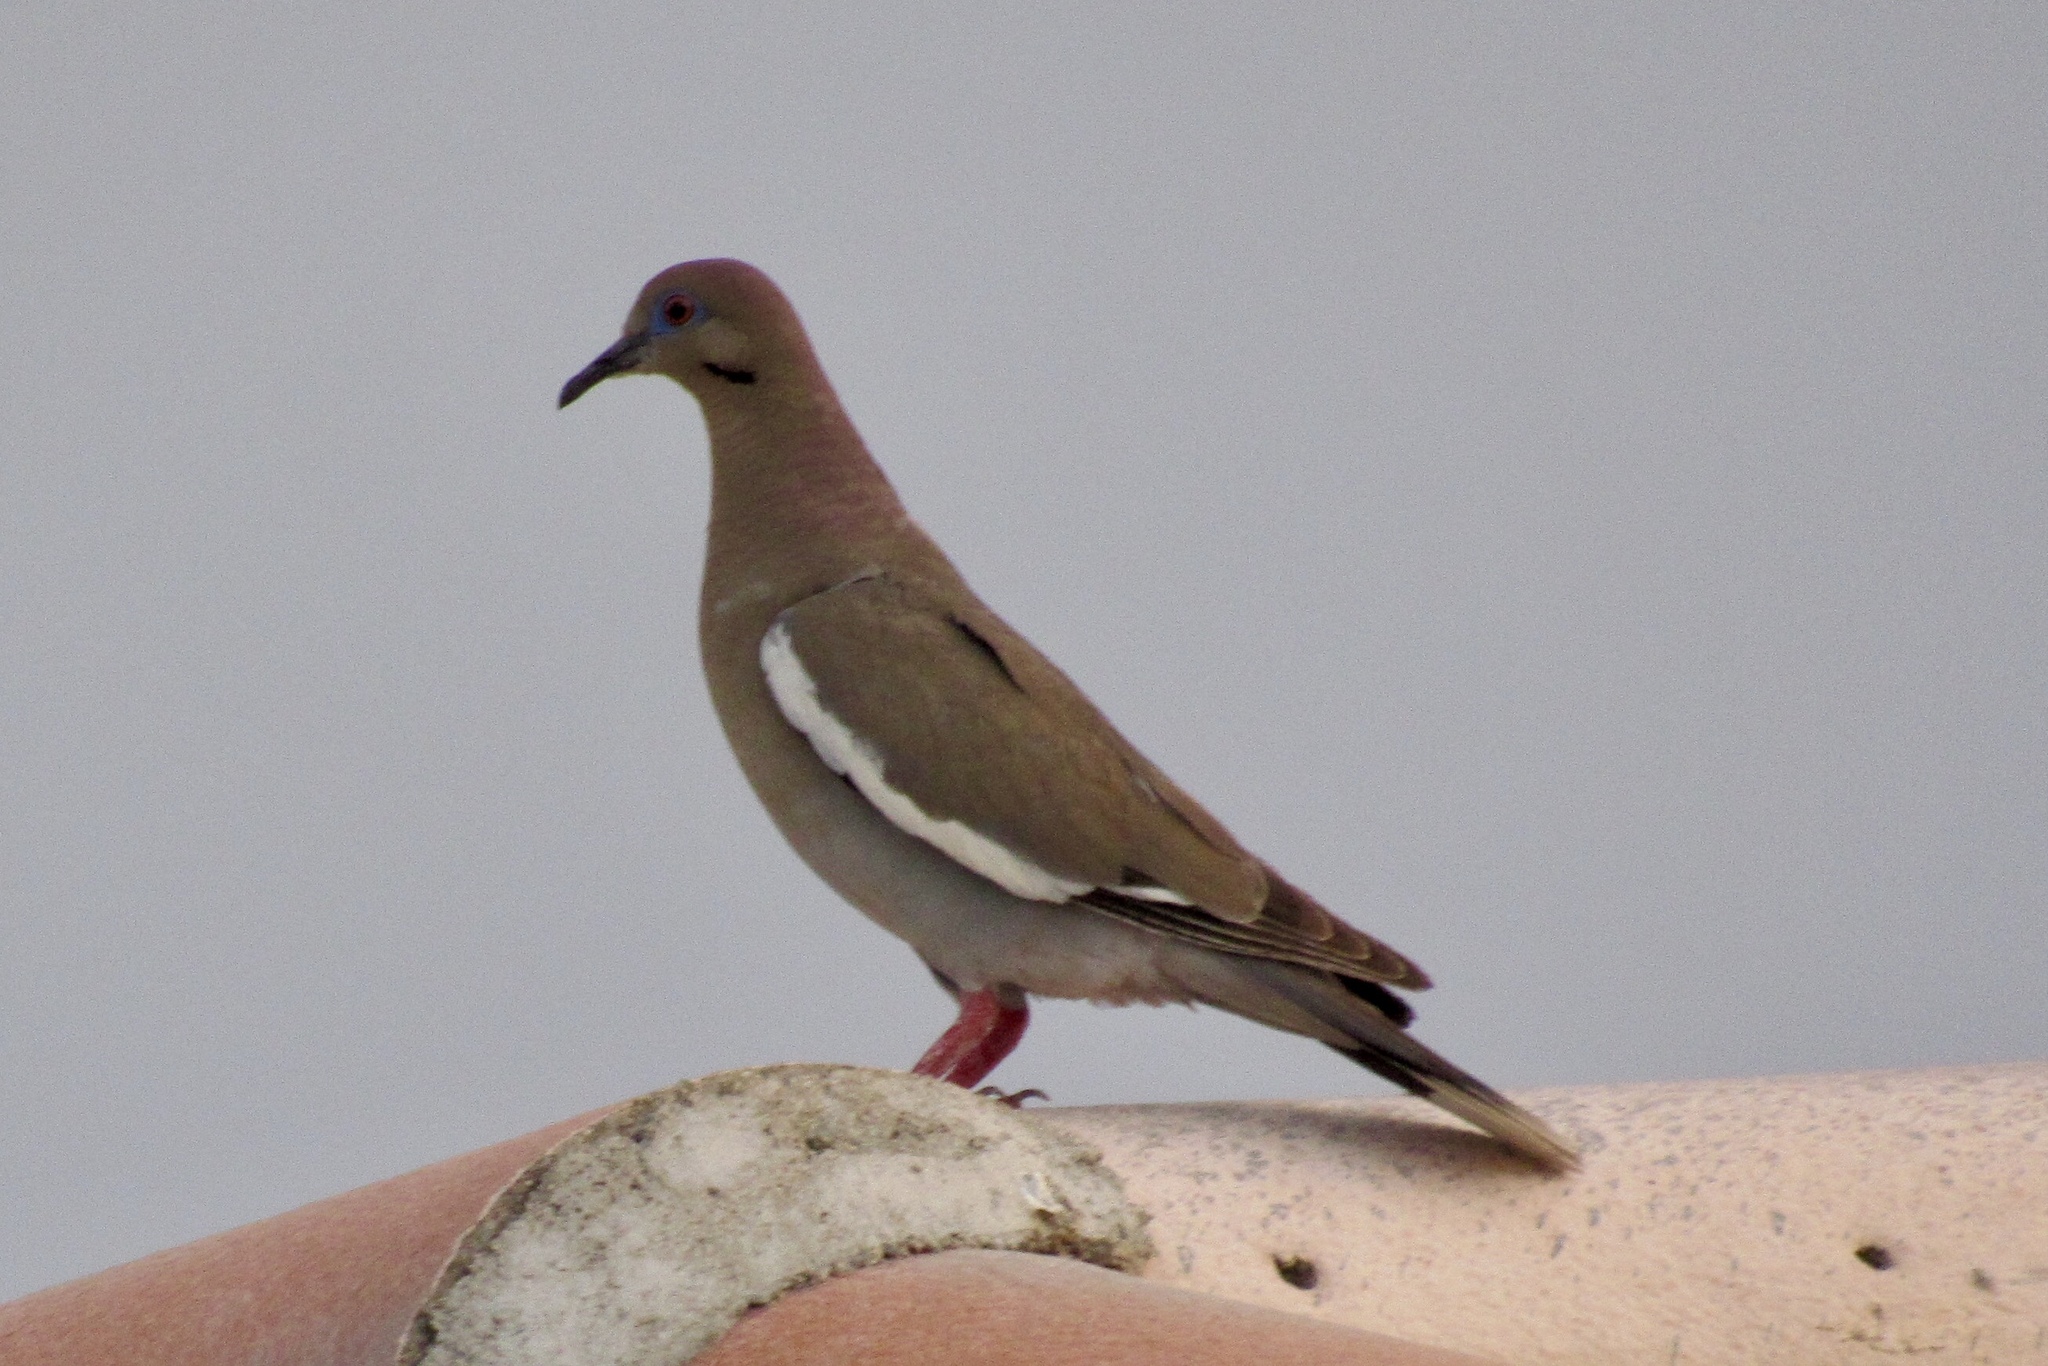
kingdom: Animalia
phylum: Chordata
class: Aves
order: Columbiformes
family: Columbidae
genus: Zenaida
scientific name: Zenaida asiatica
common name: White-winged dove
